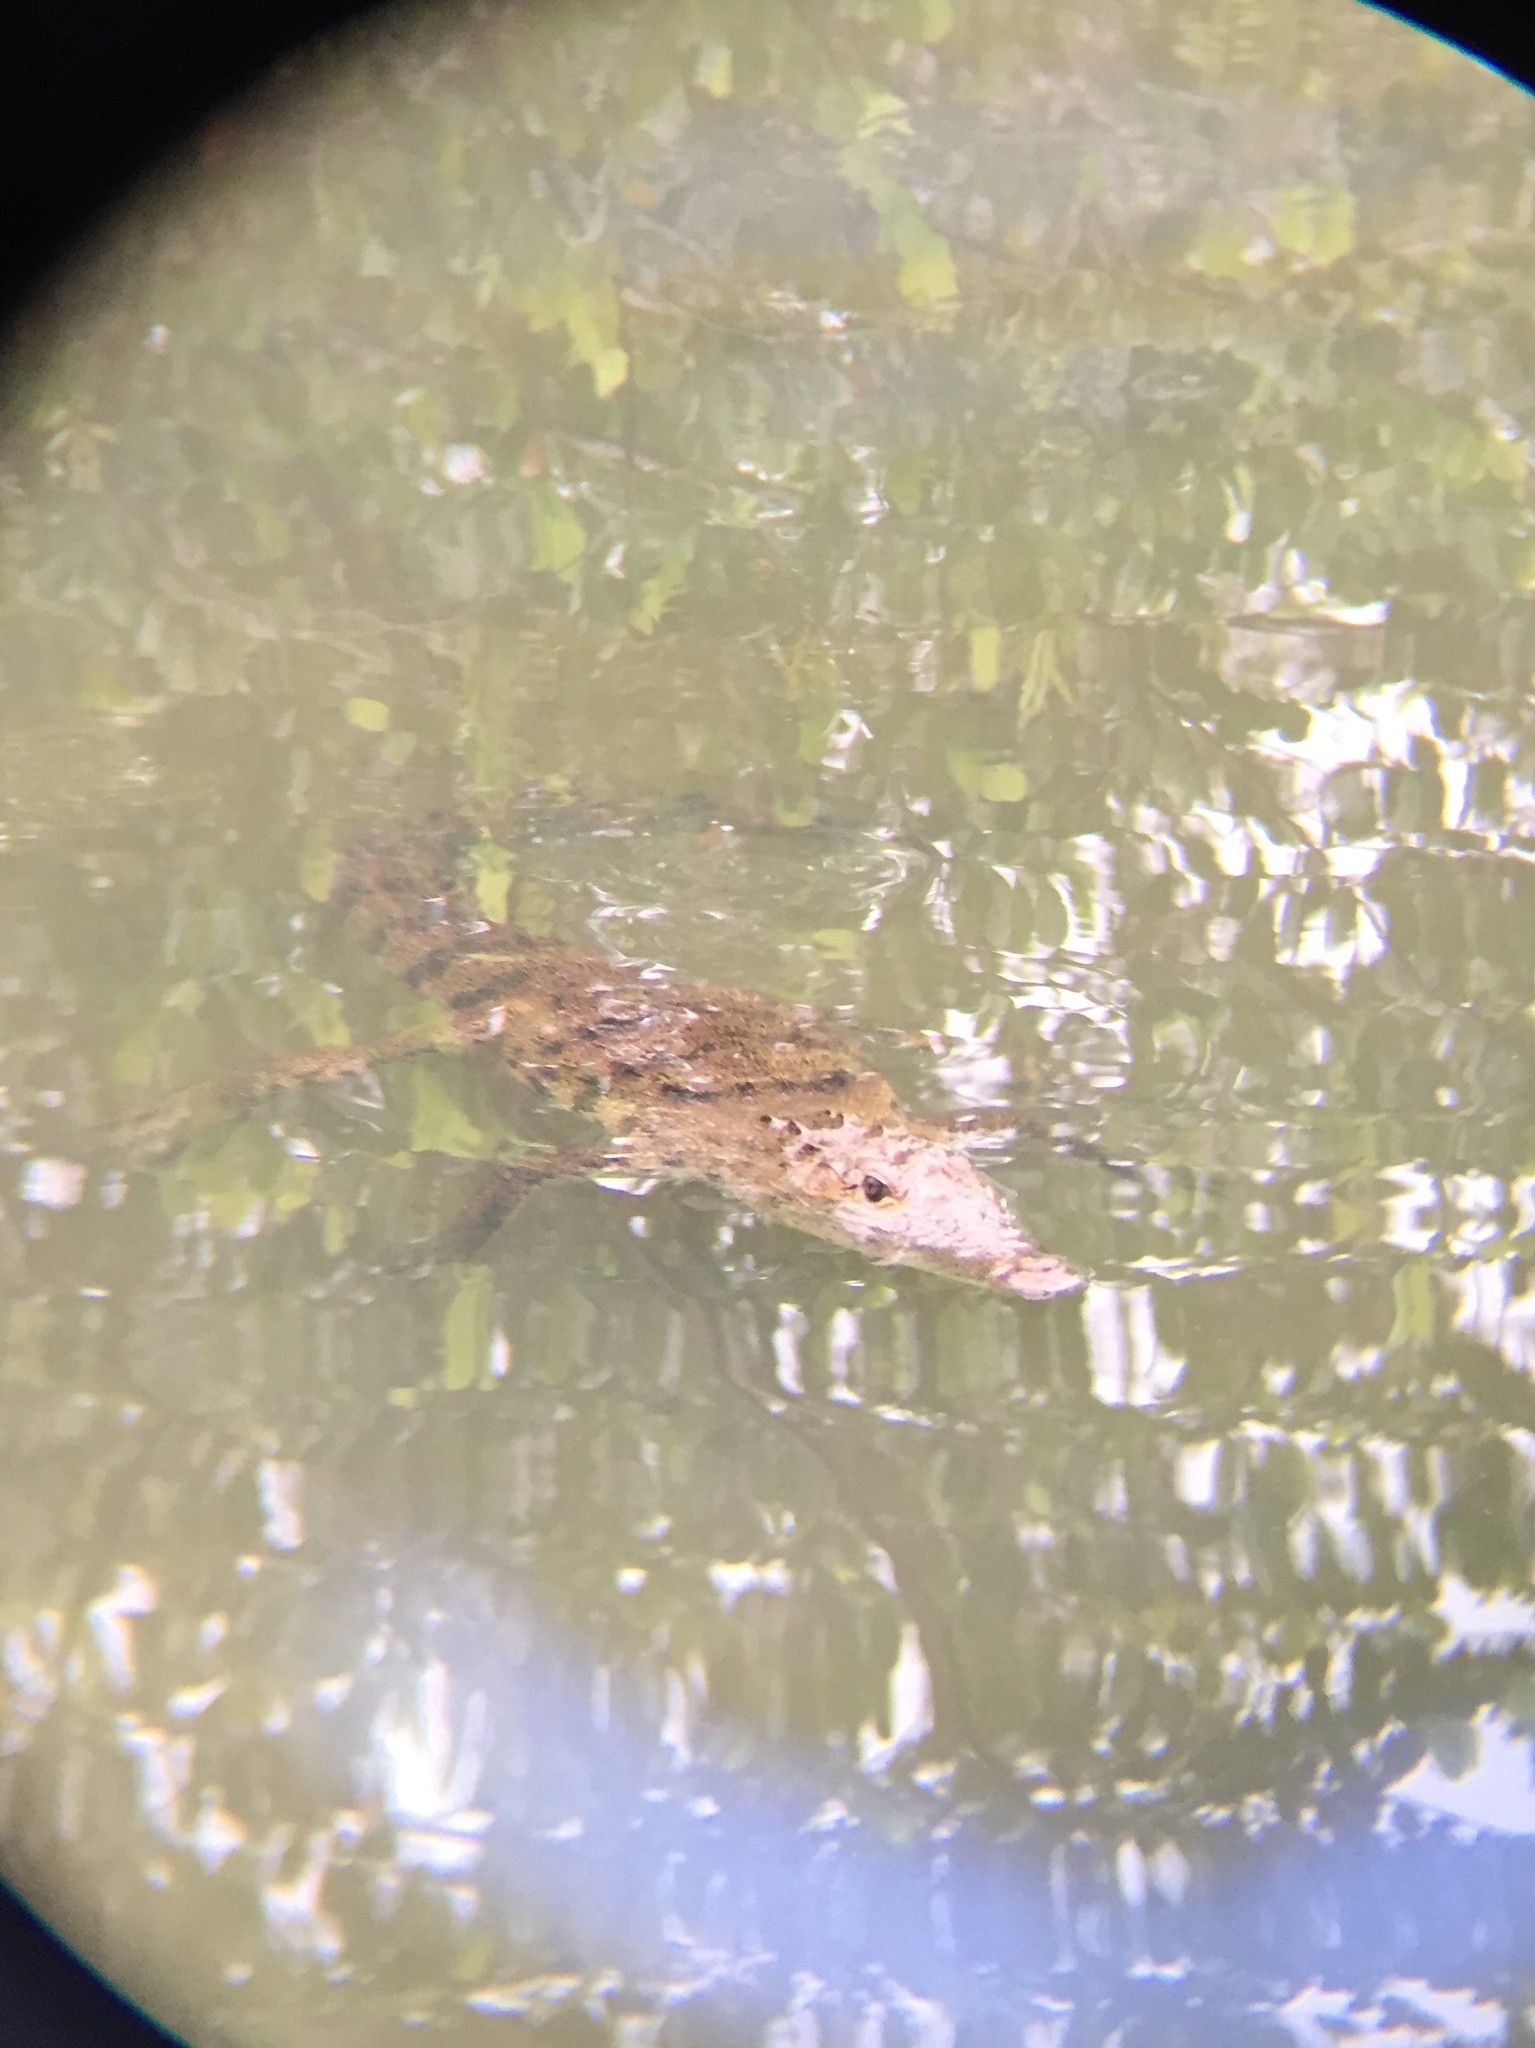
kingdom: Animalia
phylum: Chordata
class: Crocodylia
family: Crocodylidae
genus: Crocodylus
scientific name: Crocodylus acutus
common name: American crocodile
